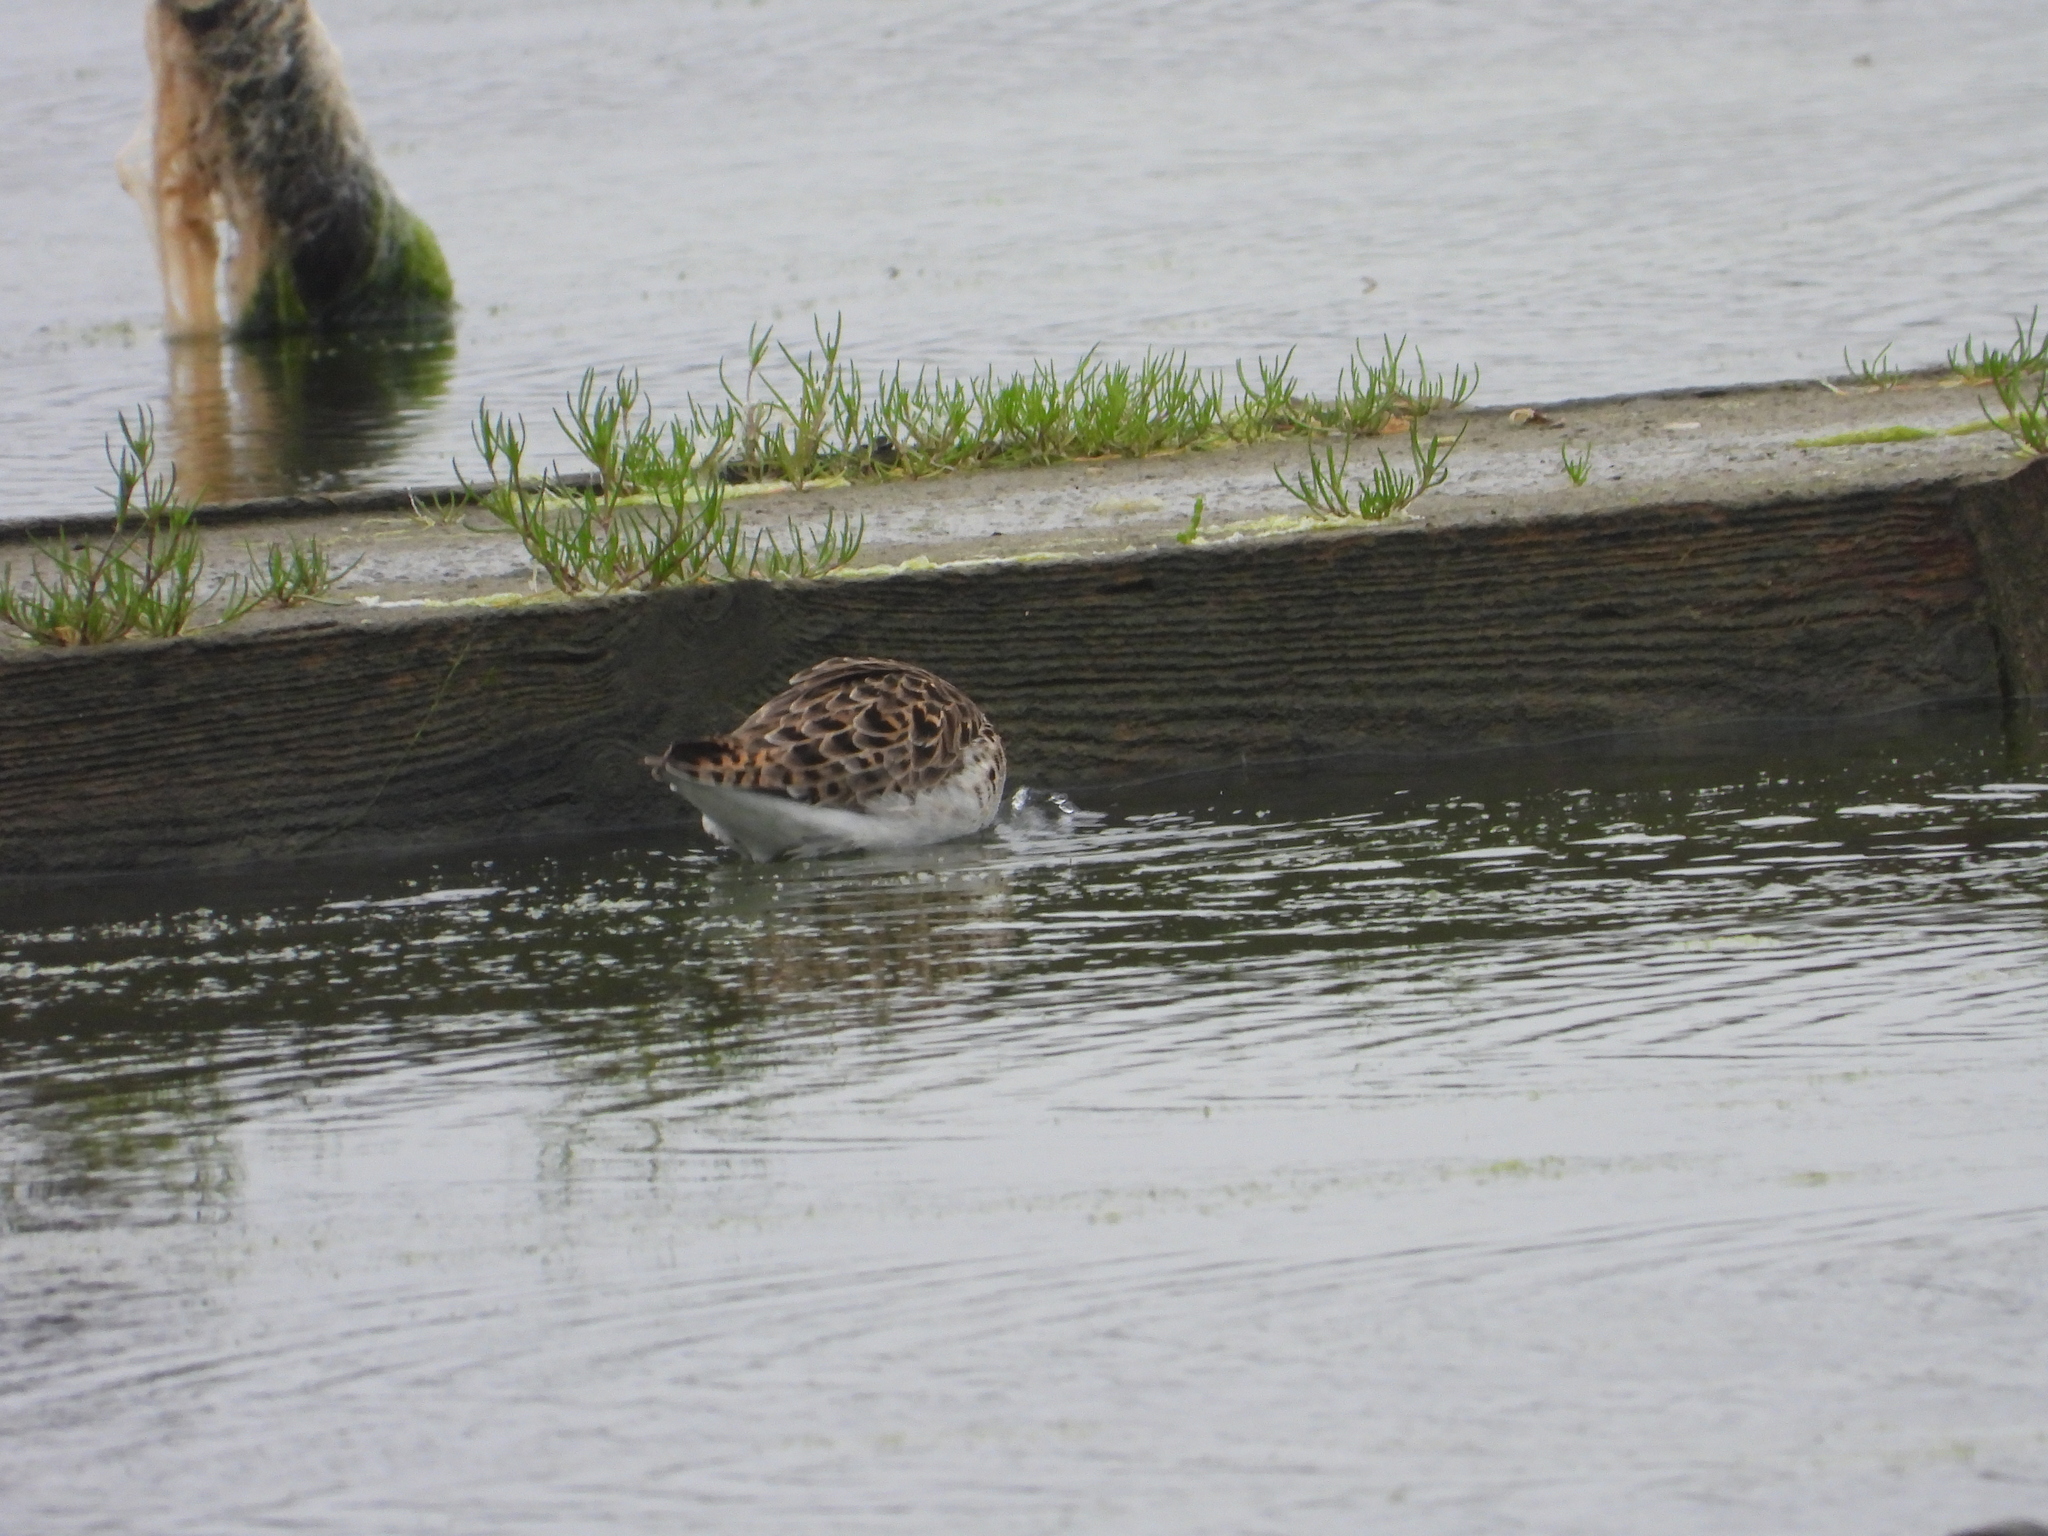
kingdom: Animalia
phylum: Chordata
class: Aves
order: Charadriiformes
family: Scolopacidae
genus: Calidris
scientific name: Calidris pugnax
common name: Ruff
